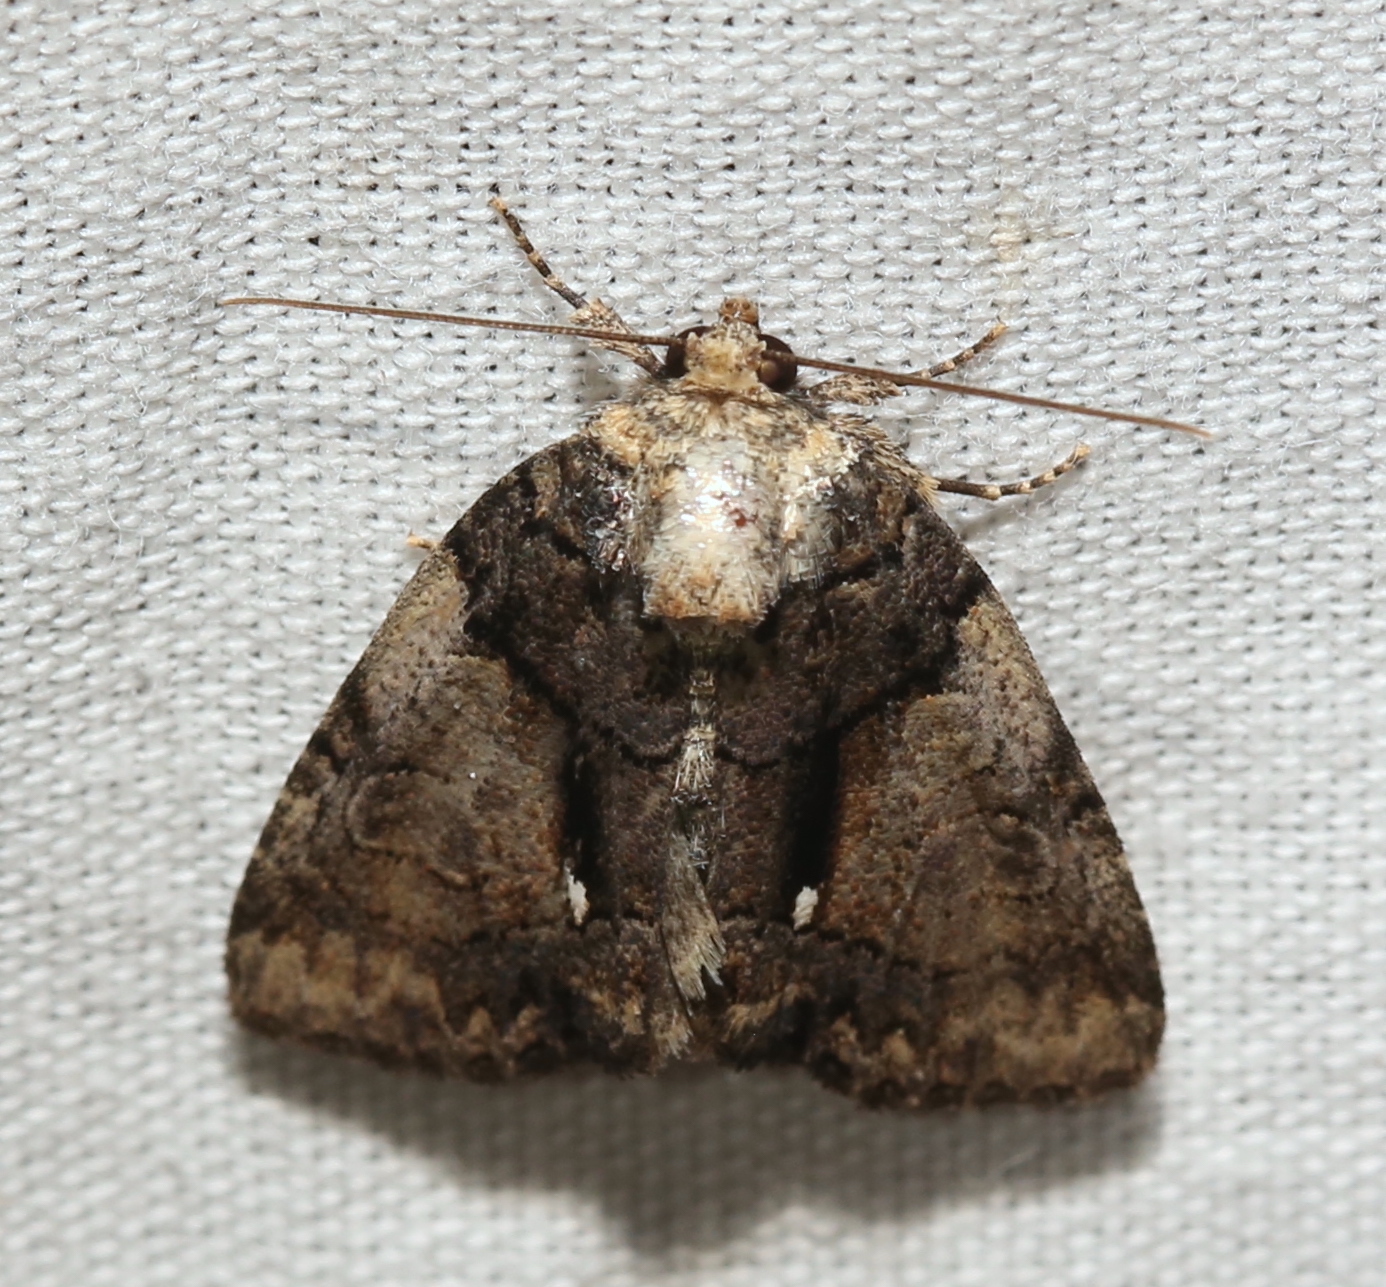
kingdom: Animalia
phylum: Arthropoda
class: Insecta
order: Lepidoptera
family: Noctuidae
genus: Chytonix
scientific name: Chytonix palliatricula
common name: Cloaked marvel
